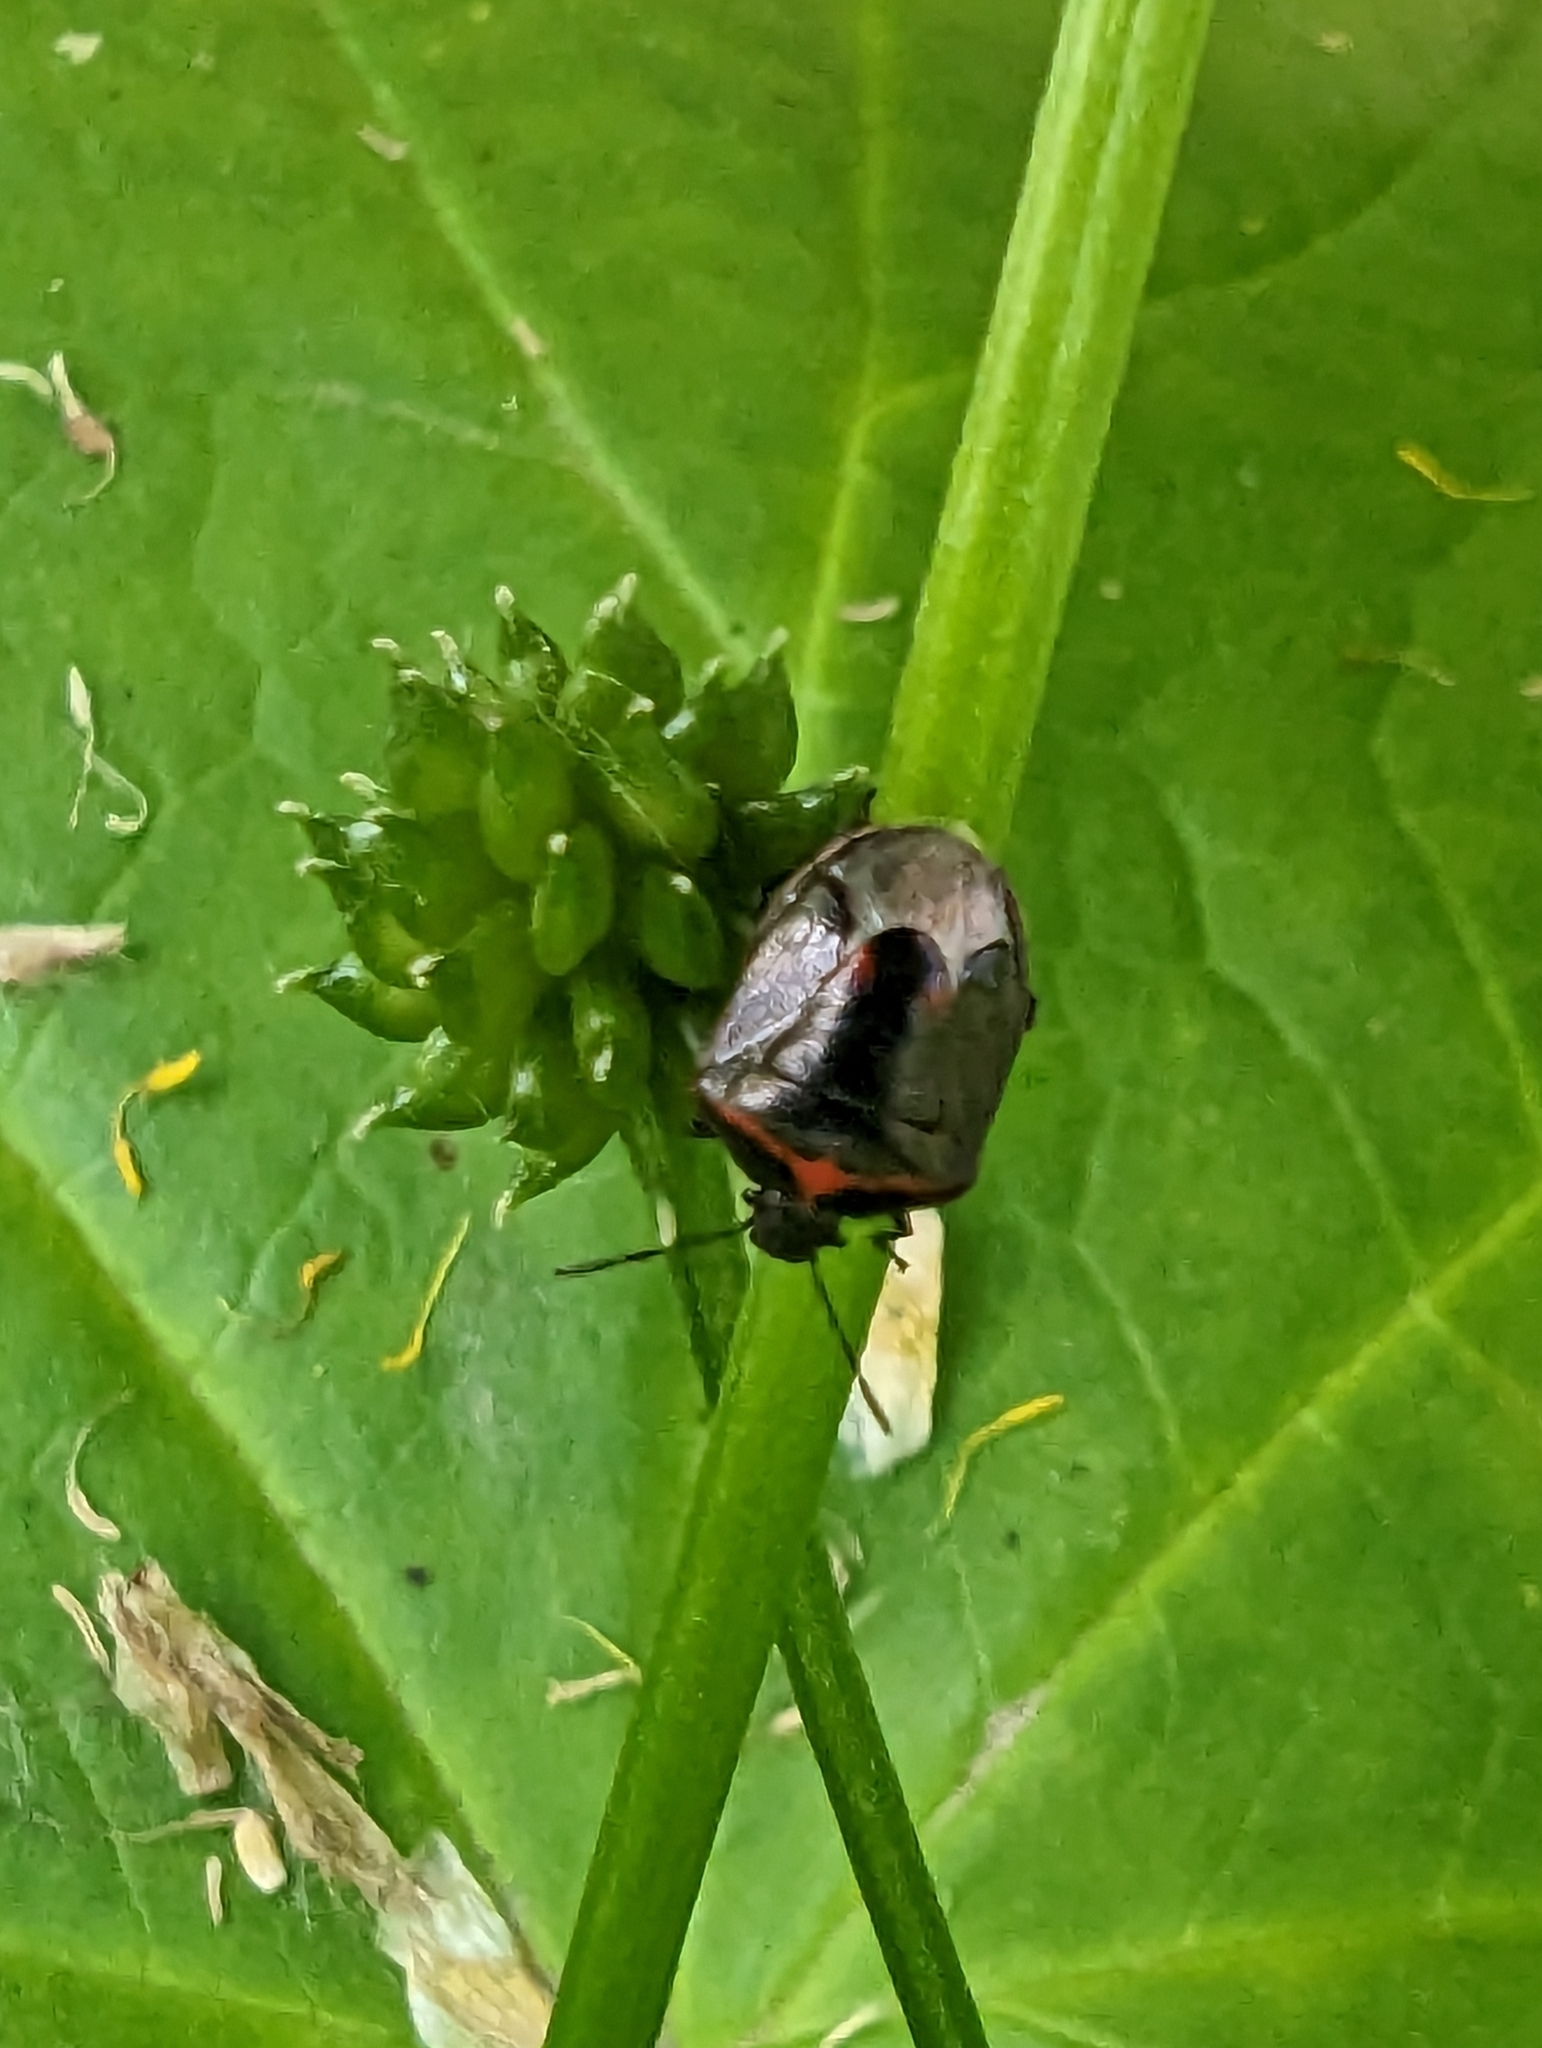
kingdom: Animalia
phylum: Arthropoda
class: Insecta
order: Hemiptera
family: Pentatomidae
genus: Cosmopepla
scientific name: Cosmopepla lintneriana
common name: Twice-stabbed stink bug
